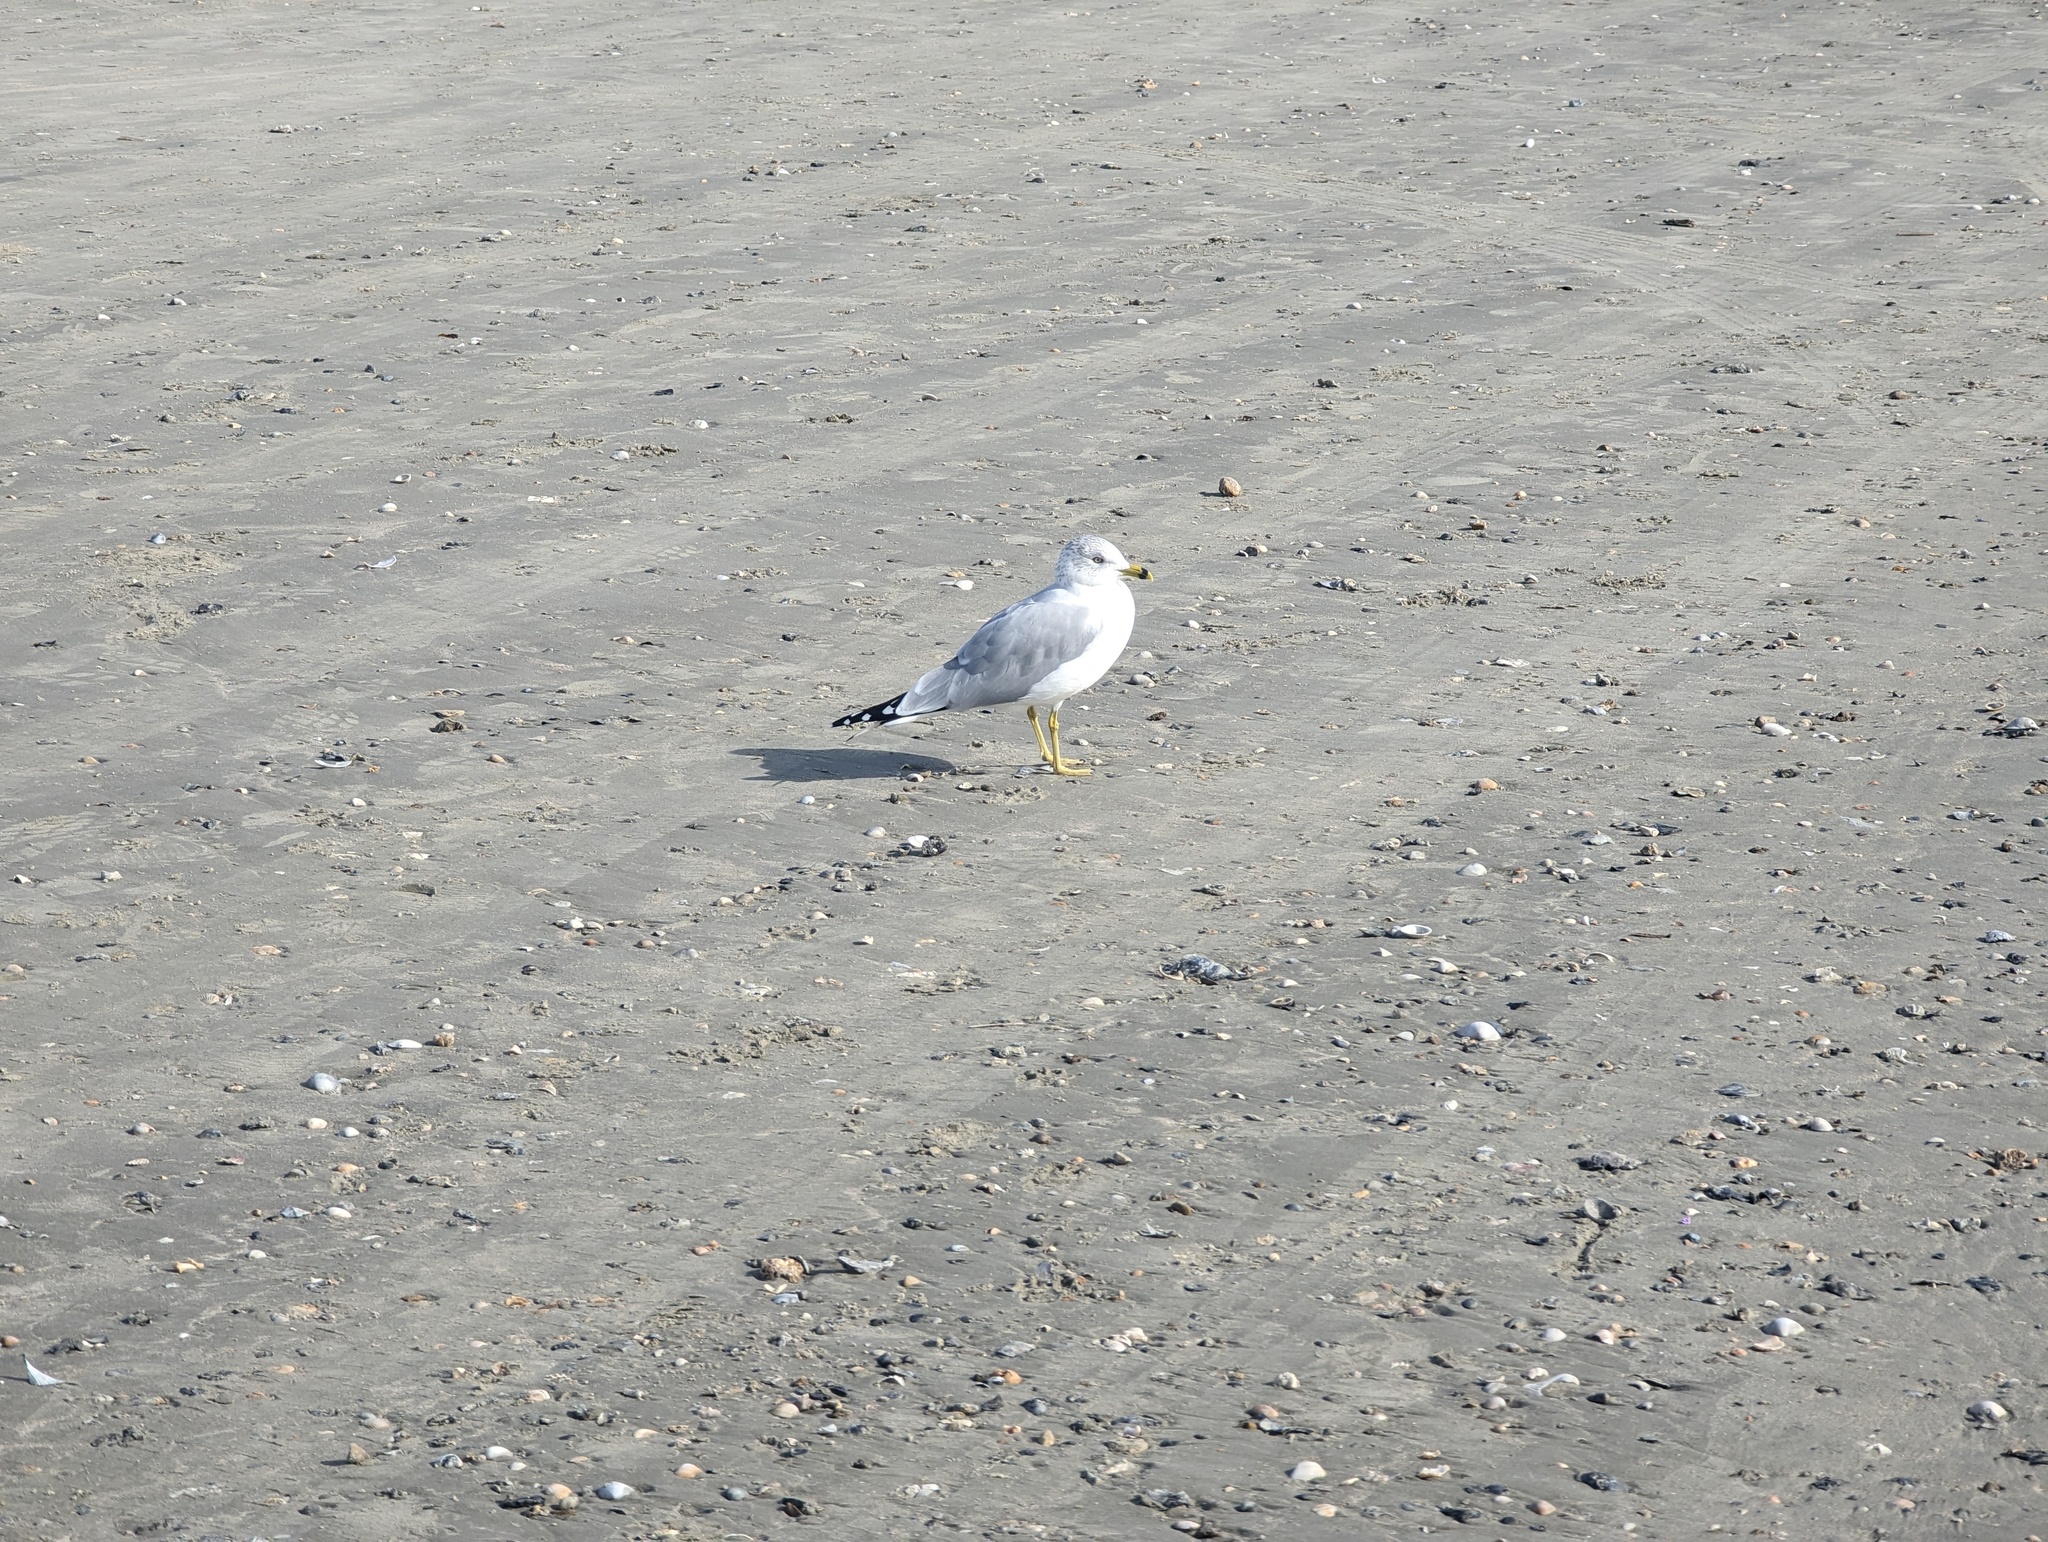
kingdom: Animalia
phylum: Chordata
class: Aves
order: Charadriiformes
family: Laridae
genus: Larus
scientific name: Larus delawarensis
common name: Ring-billed gull
